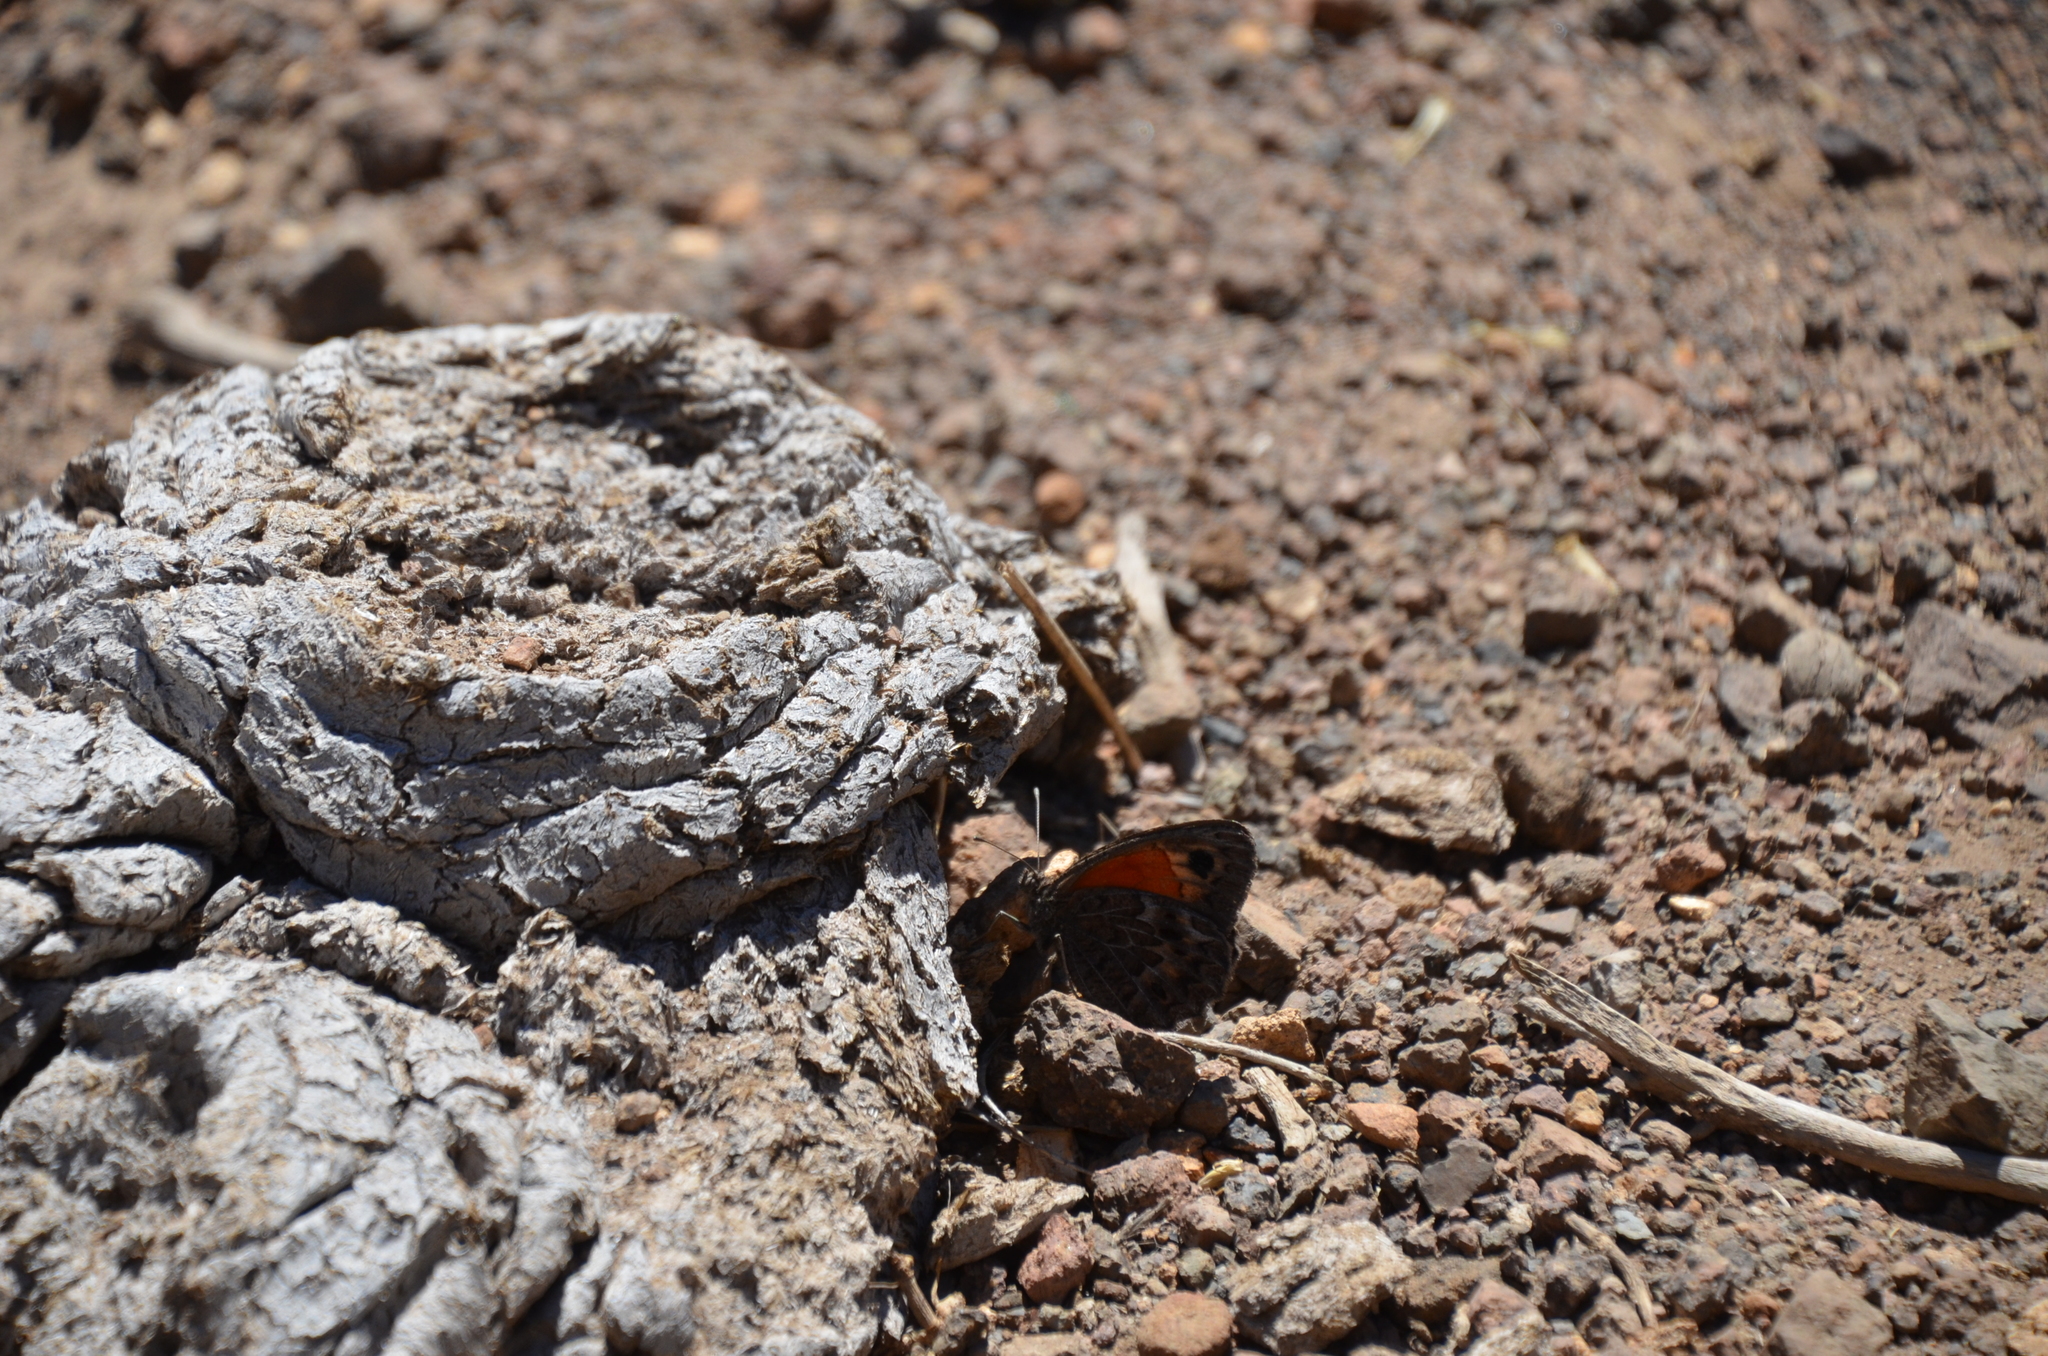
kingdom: Animalia
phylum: Arthropoda
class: Insecta
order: Lepidoptera
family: Nymphalidae
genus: Argyrophorus
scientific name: Argyrophorus
